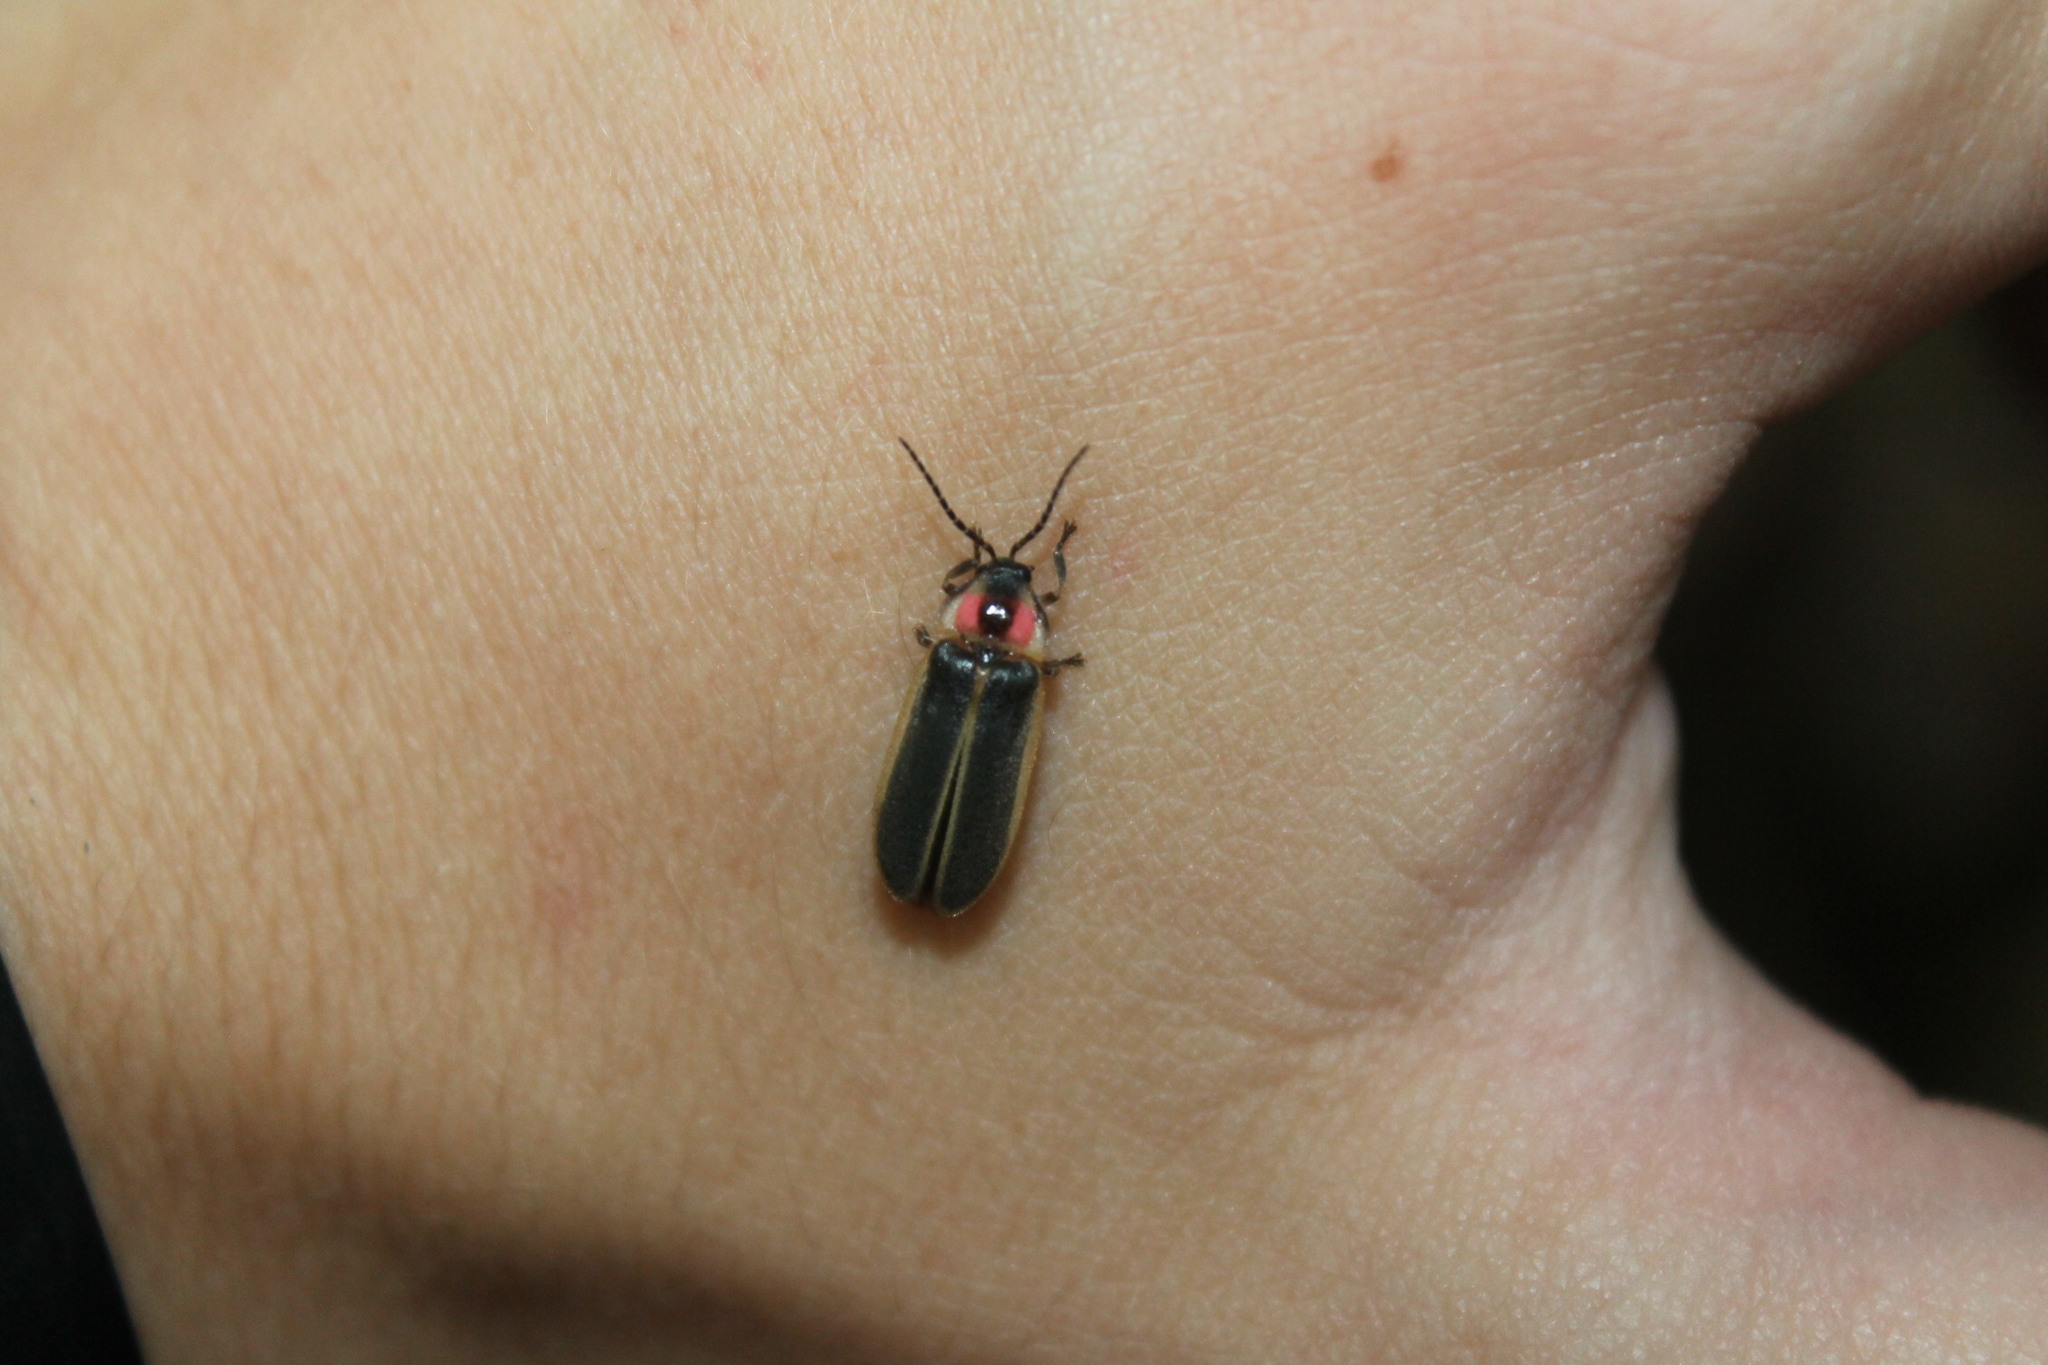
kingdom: Animalia
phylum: Arthropoda
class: Insecta
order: Coleoptera
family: Lampyridae
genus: Photinus
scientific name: Photinus pyralis
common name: Big dipper firefly
